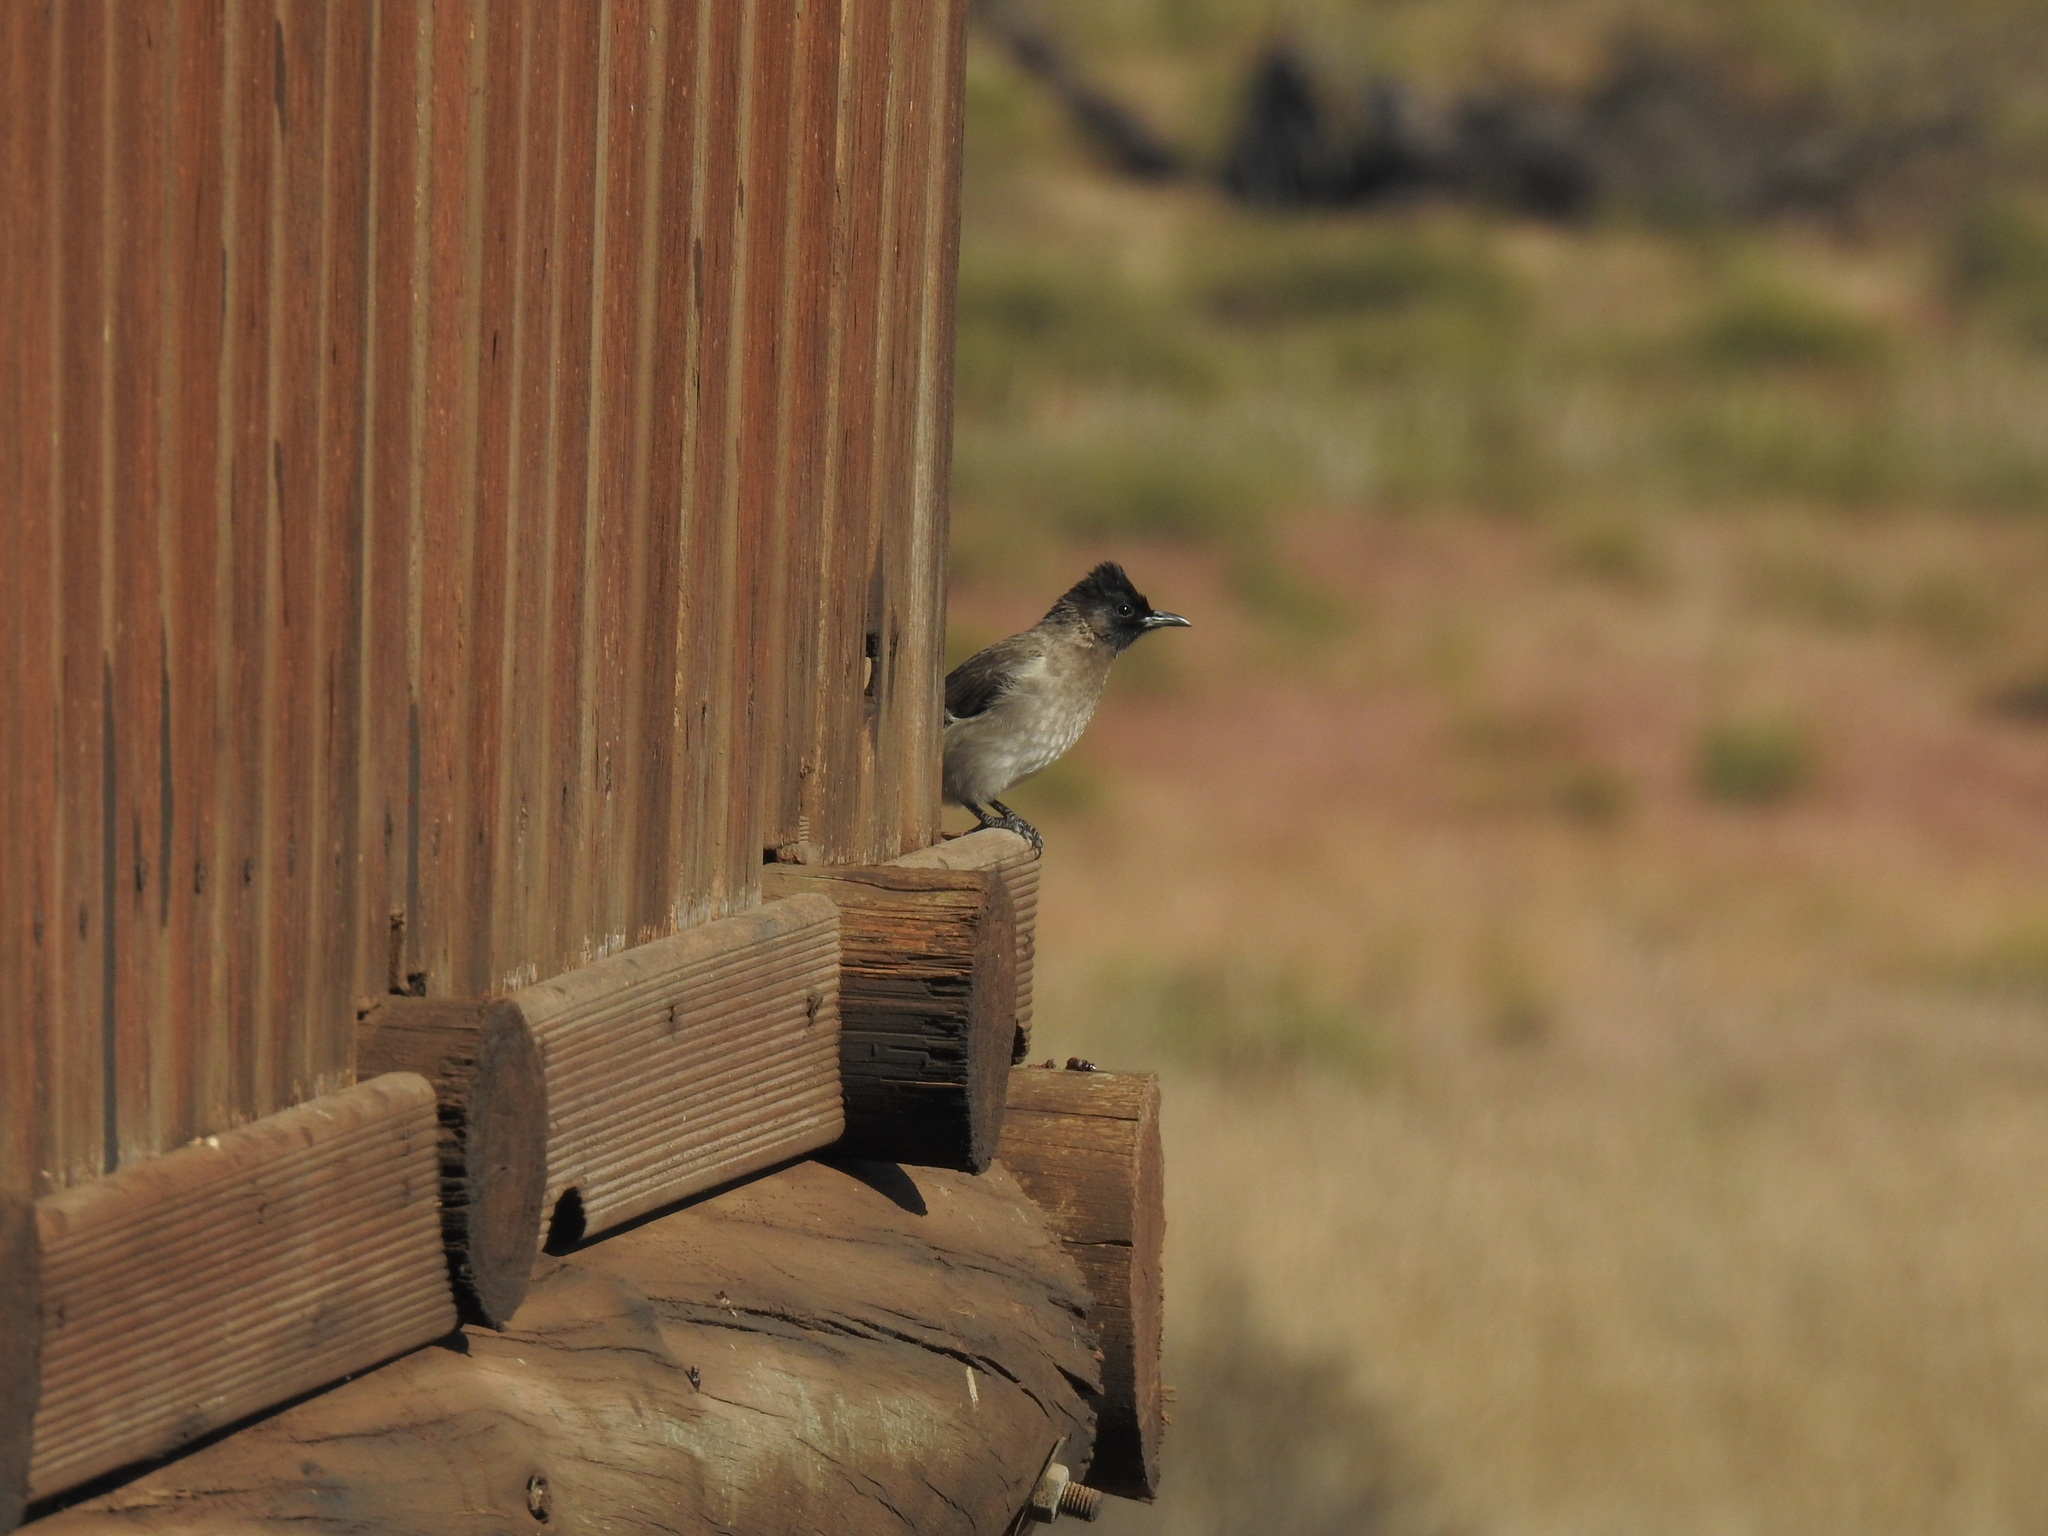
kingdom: Animalia
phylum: Chordata
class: Aves
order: Passeriformes
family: Pycnonotidae
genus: Pycnonotus
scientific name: Pycnonotus barbatus
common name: Common bulbul
